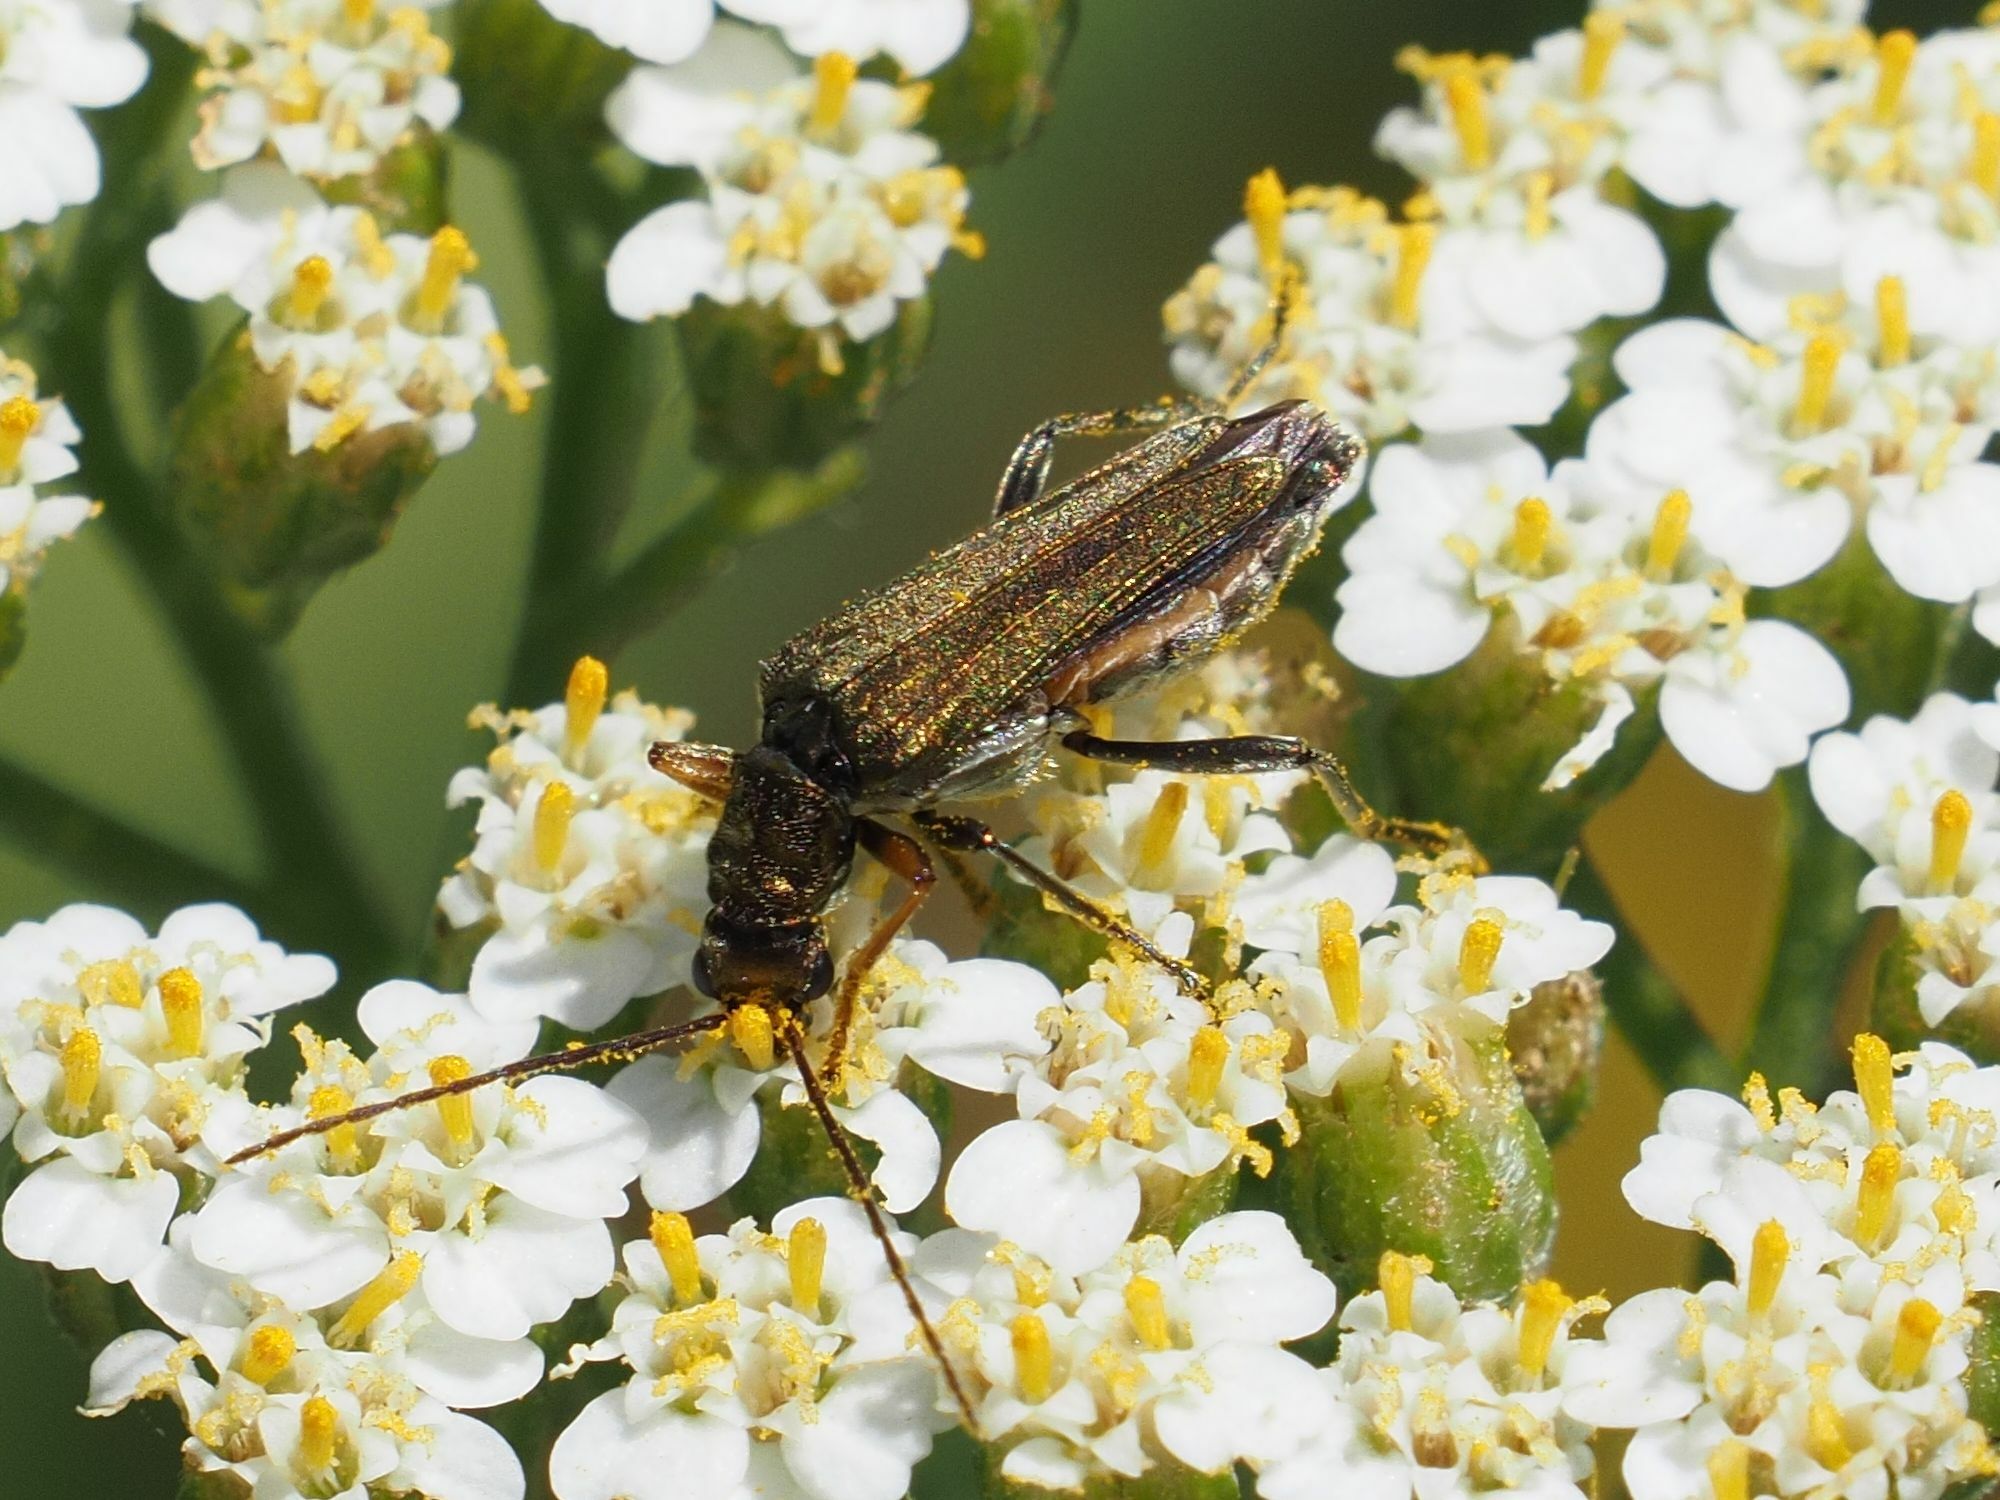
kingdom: Animalia
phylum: Arthropoda
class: Insecta
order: Coleoptera
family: Oedemeridae
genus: Oedemera
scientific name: Oedemera flavipes
